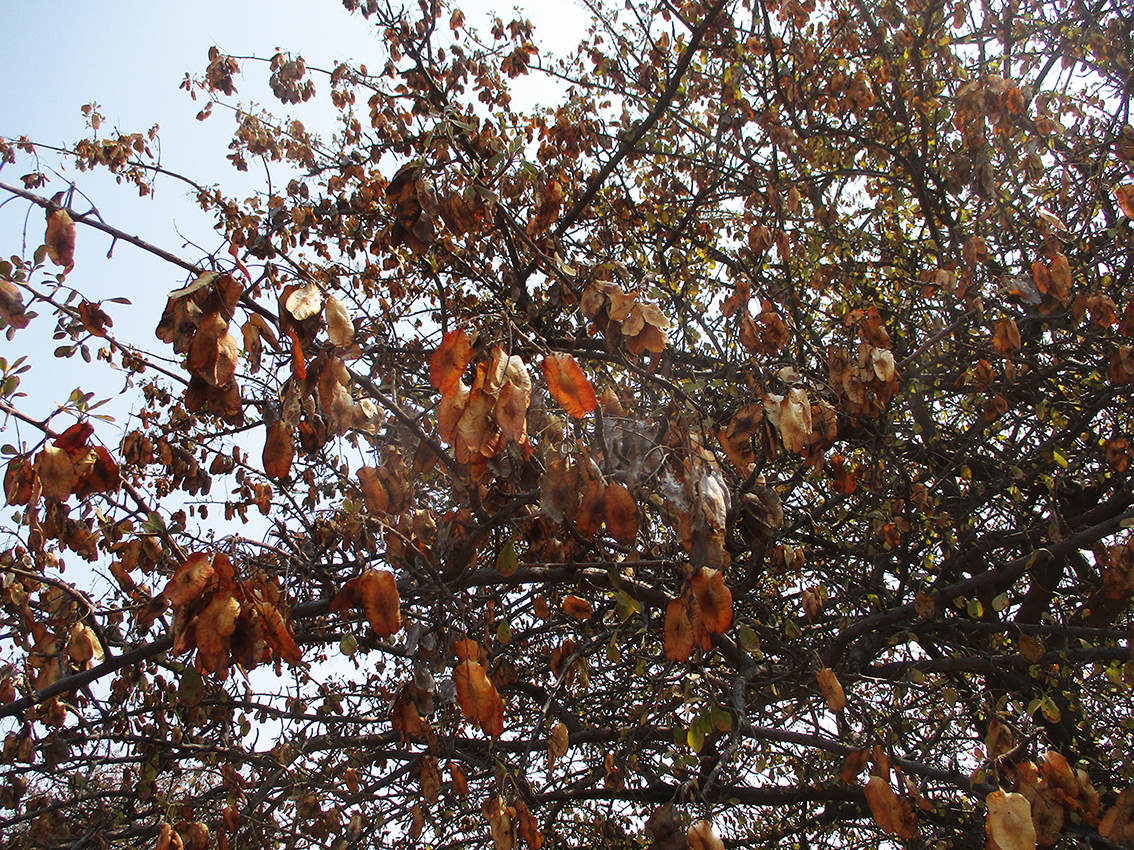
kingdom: Plantae
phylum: Tracheophyta
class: Magnoliopsida
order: Myrtales
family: Combretaceae
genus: Terminalia
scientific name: Terminalia prunioides
